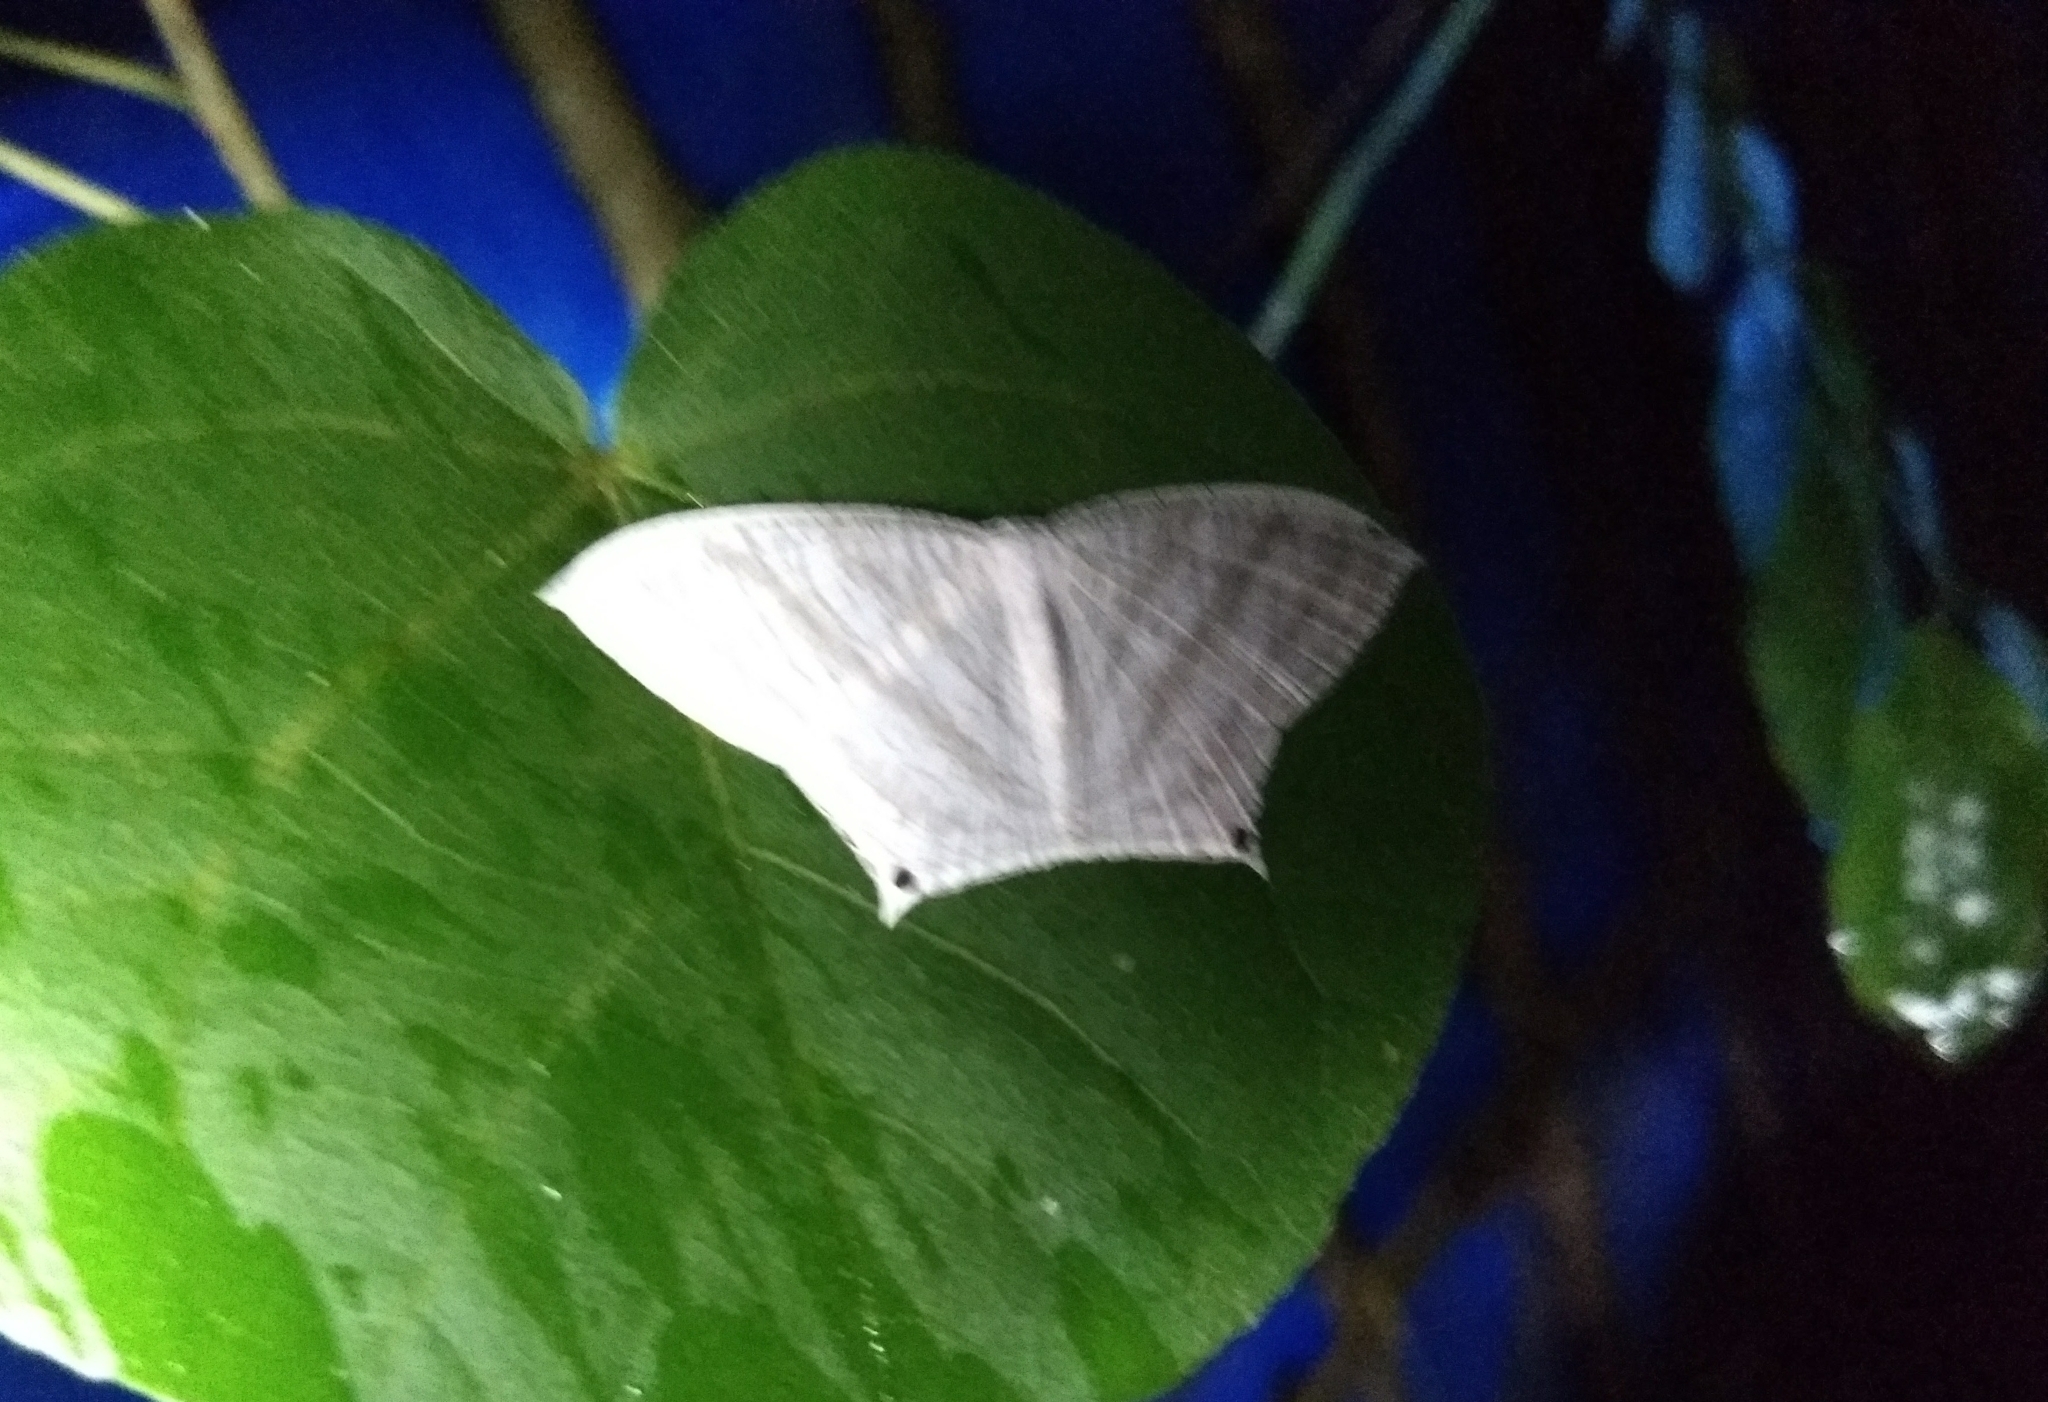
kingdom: Animalia
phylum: Arthropoda
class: Insecta
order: Lepidoptera
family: Uraniidae
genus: Micronia
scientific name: Micronia aculeata
